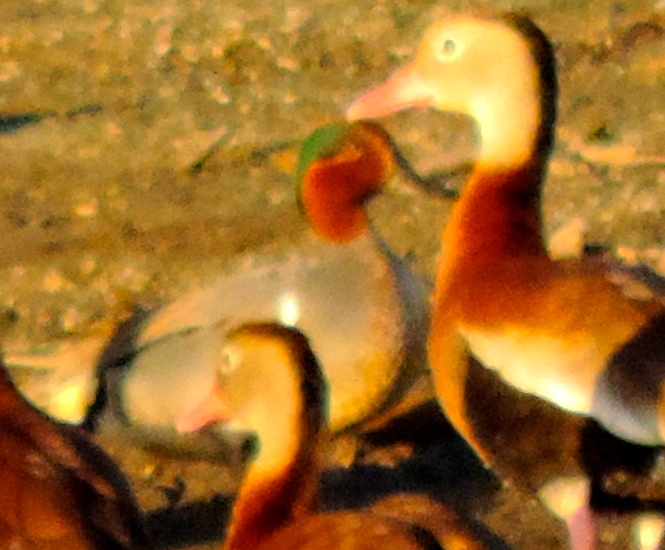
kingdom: Animalia
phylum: Chordata
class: Aves
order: Anseriformes
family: Anatidae
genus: Anas
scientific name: Anas crecca
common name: Eurasian teal
